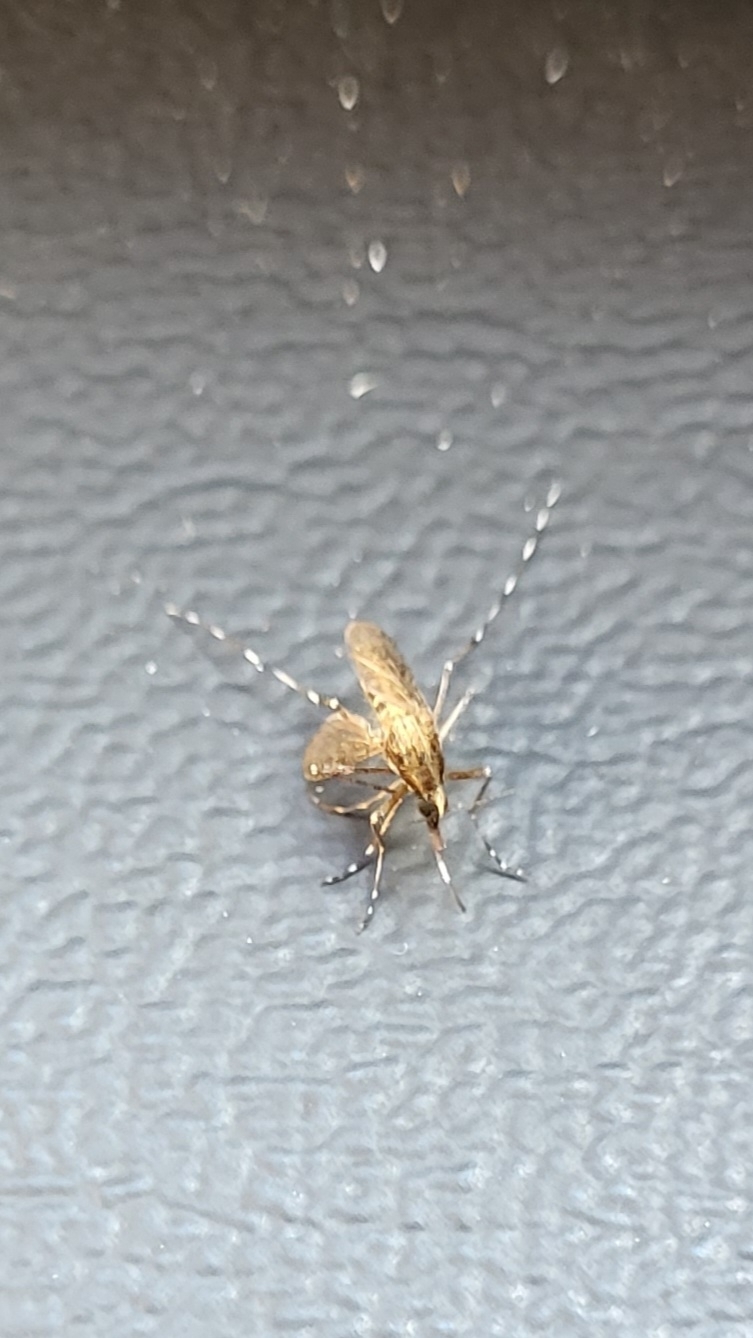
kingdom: Animalia
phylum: Arthropoda
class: Insecta
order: Diptera
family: Culicidae
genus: Aedes
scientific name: Aedes sollicitans
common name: Saltmarsh mosquito
